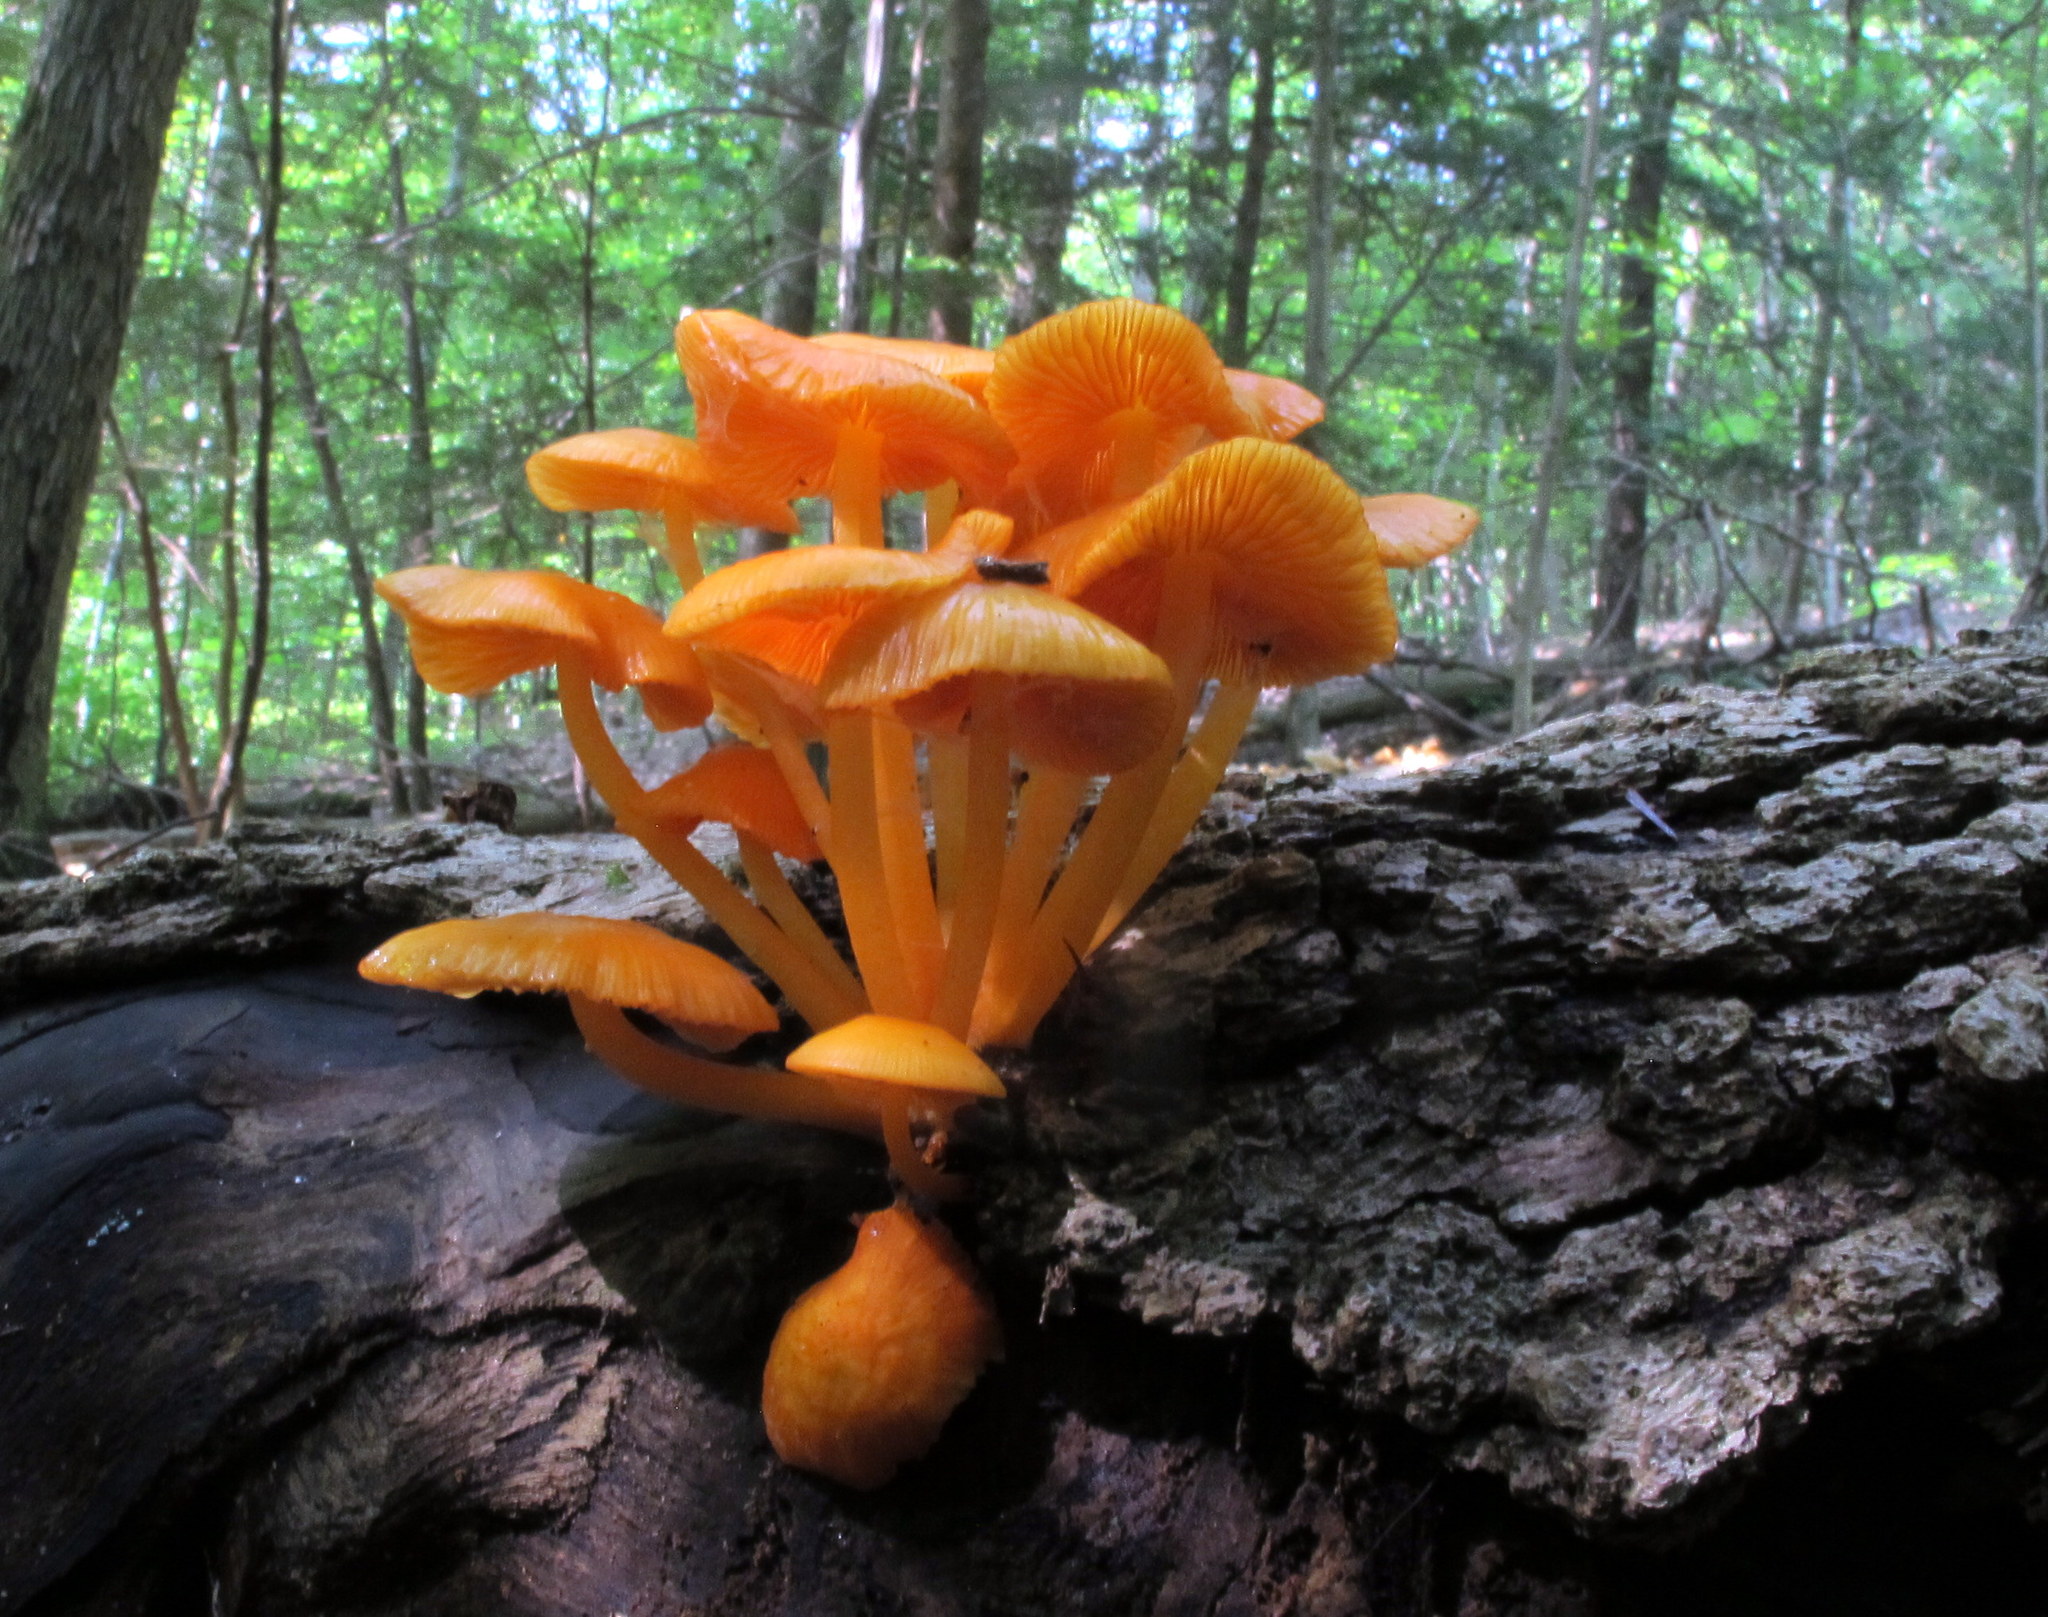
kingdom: Fungi
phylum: Basidiomycota
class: Agaricomycetes
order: Agaricales
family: Mycenaceae
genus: Mycena
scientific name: Mycena leaiana
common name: Orange mycena
